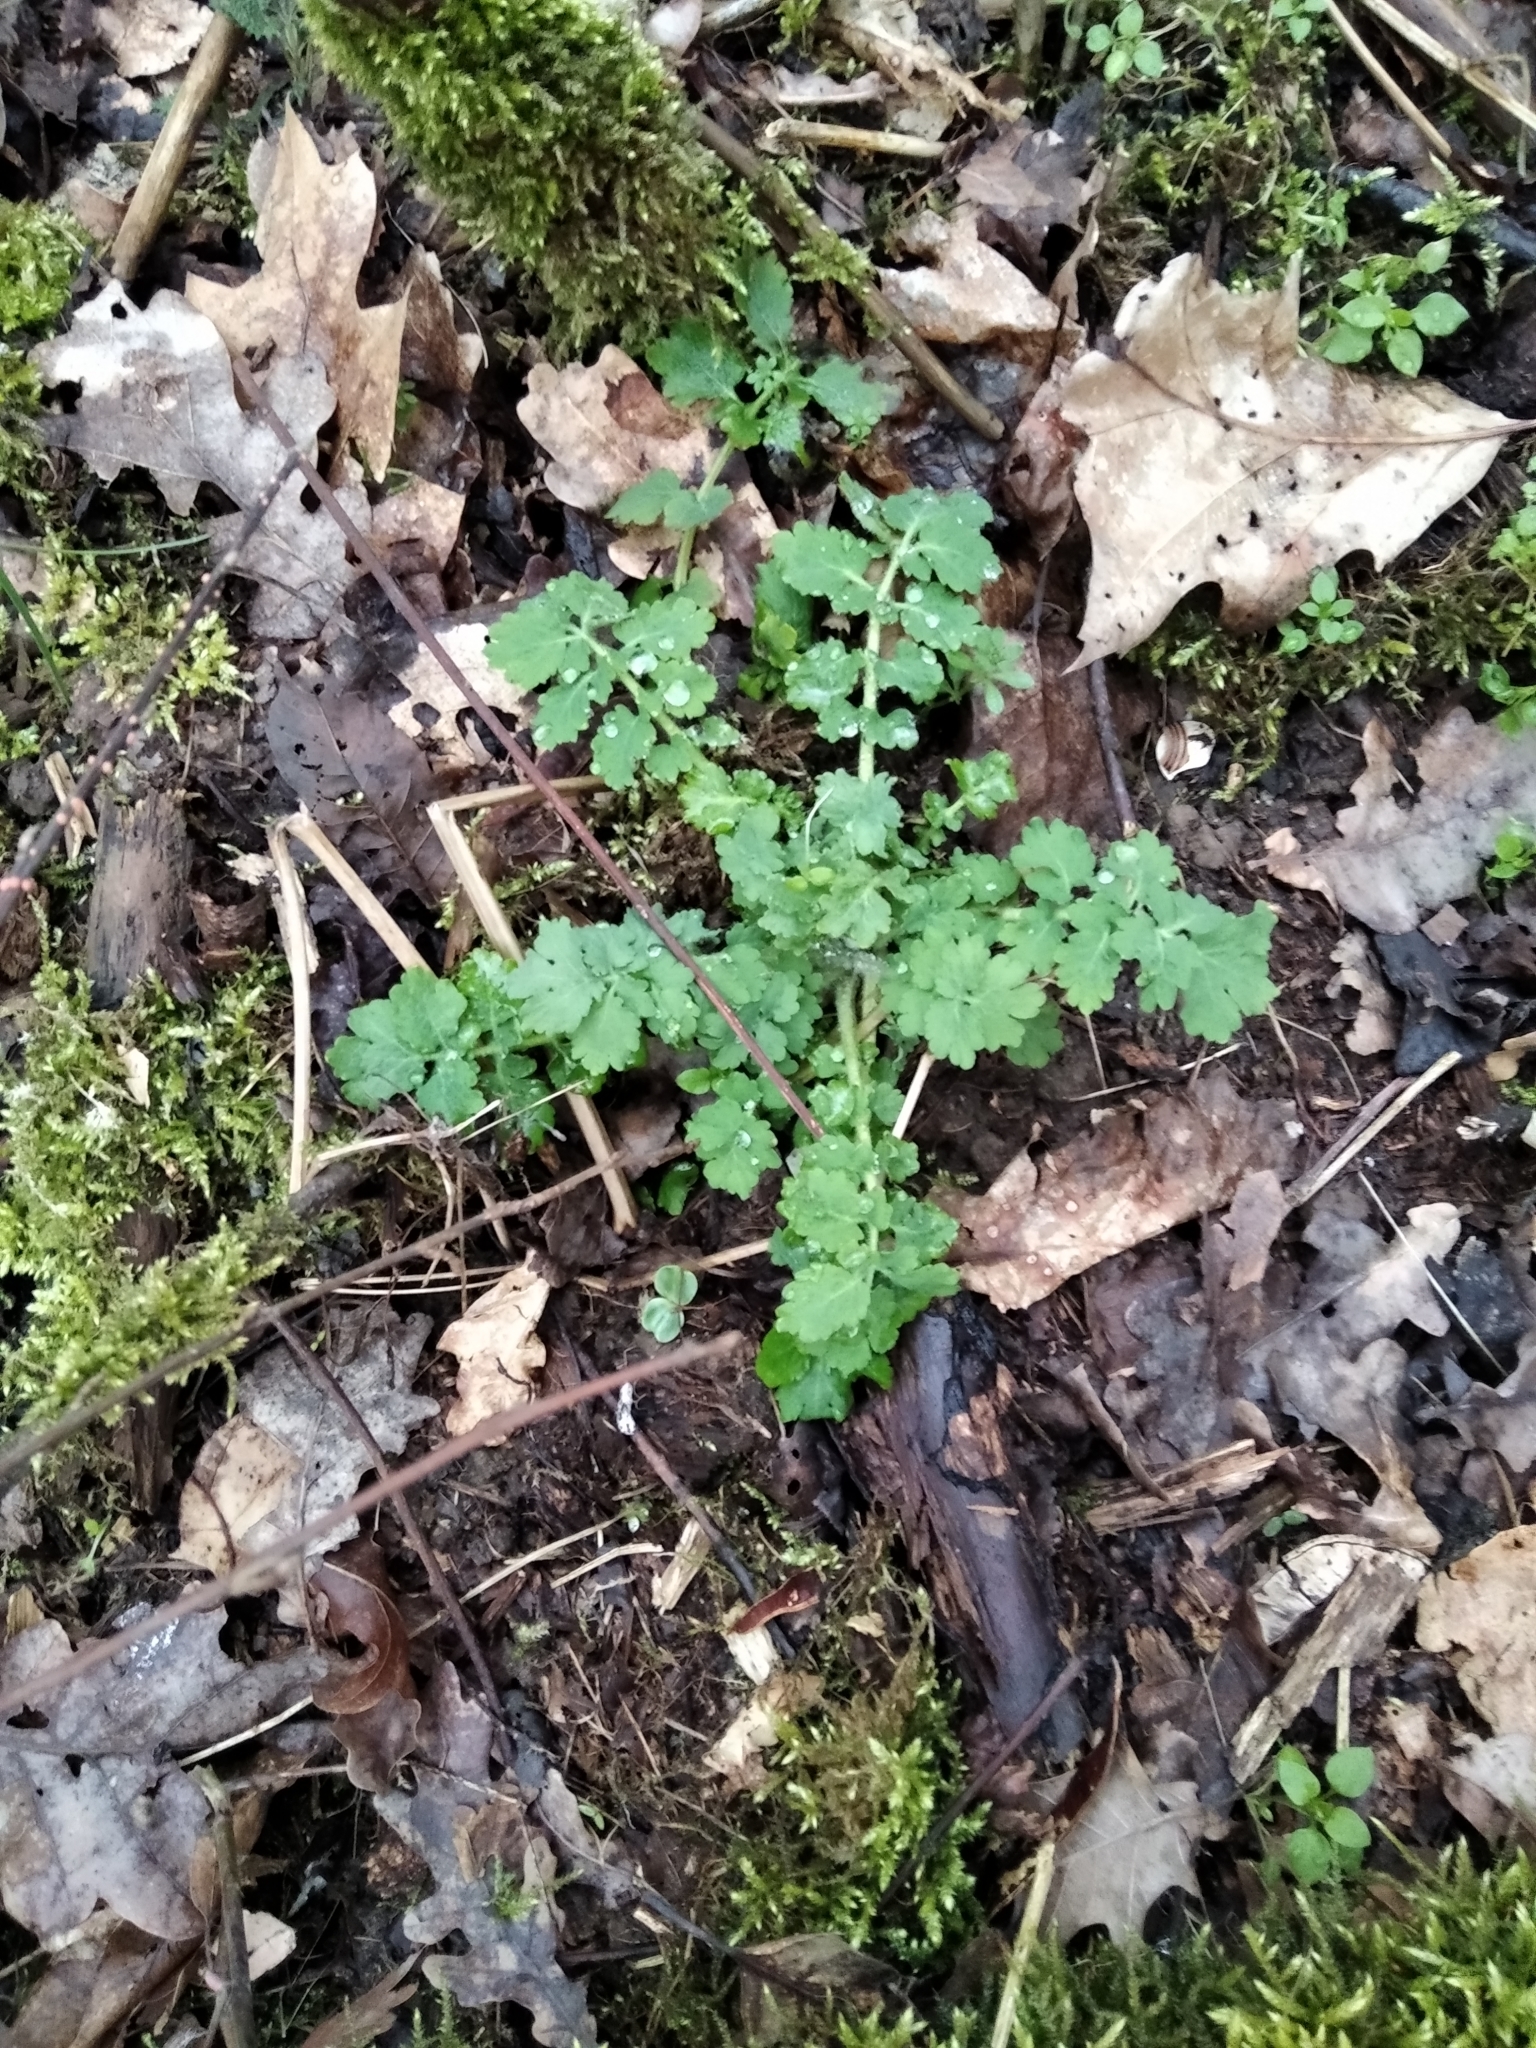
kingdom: Plantae
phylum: Tracheophyta
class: Magnoliopsida
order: Ranunculales
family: Papaveraceae
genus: Chelidonium
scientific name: Chelidonium majus
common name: Greater celandine
